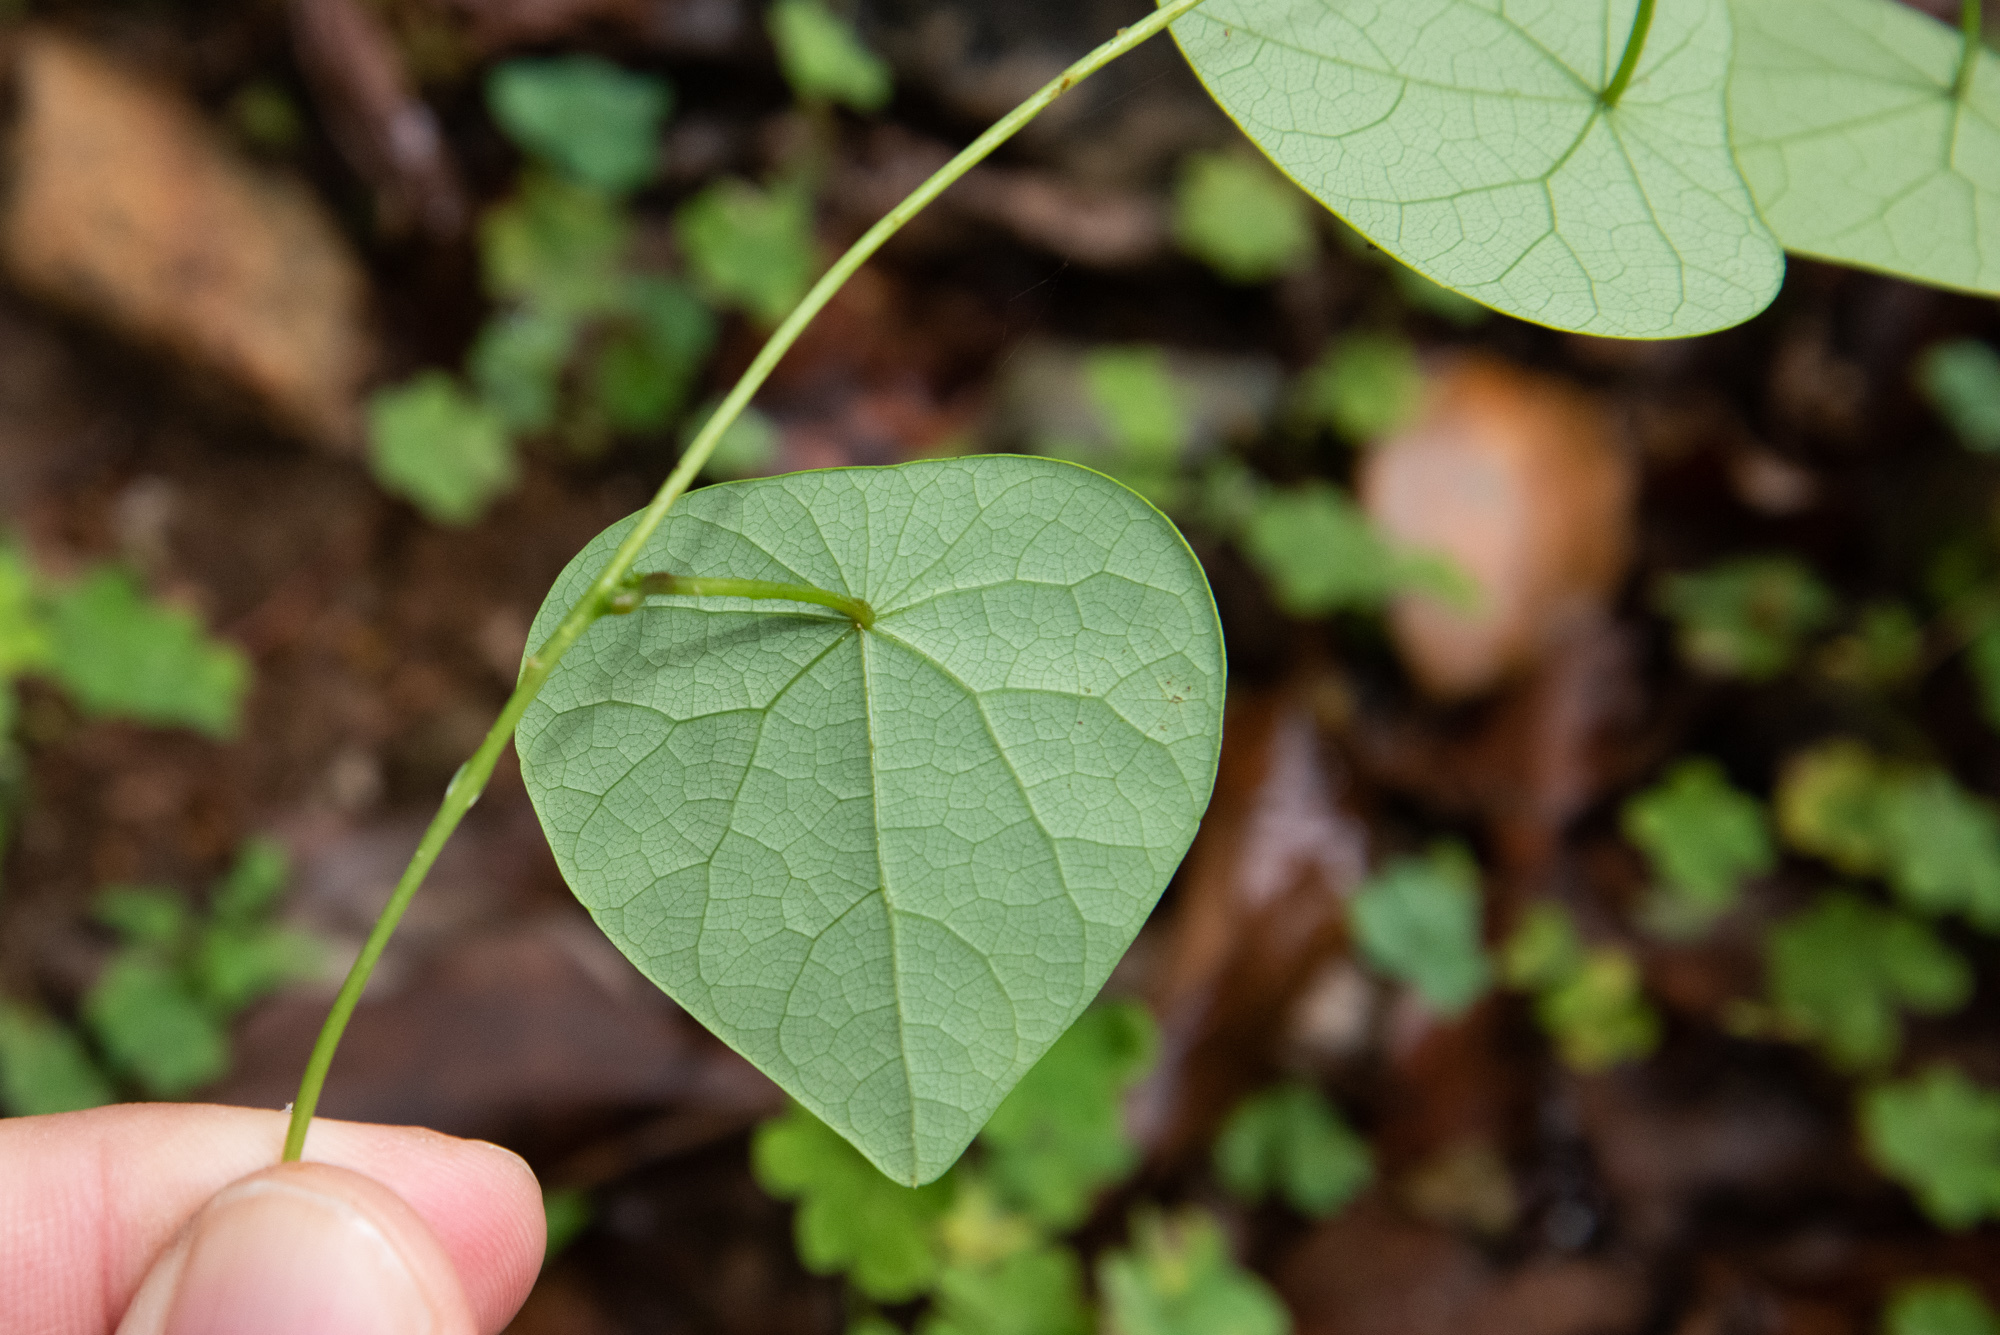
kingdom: Plantae
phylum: Tracheophyta
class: Magnoliopsida
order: Ranunculales
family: Menispermaceae
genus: Stephania
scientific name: Stephania japonica
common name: Snake vine
